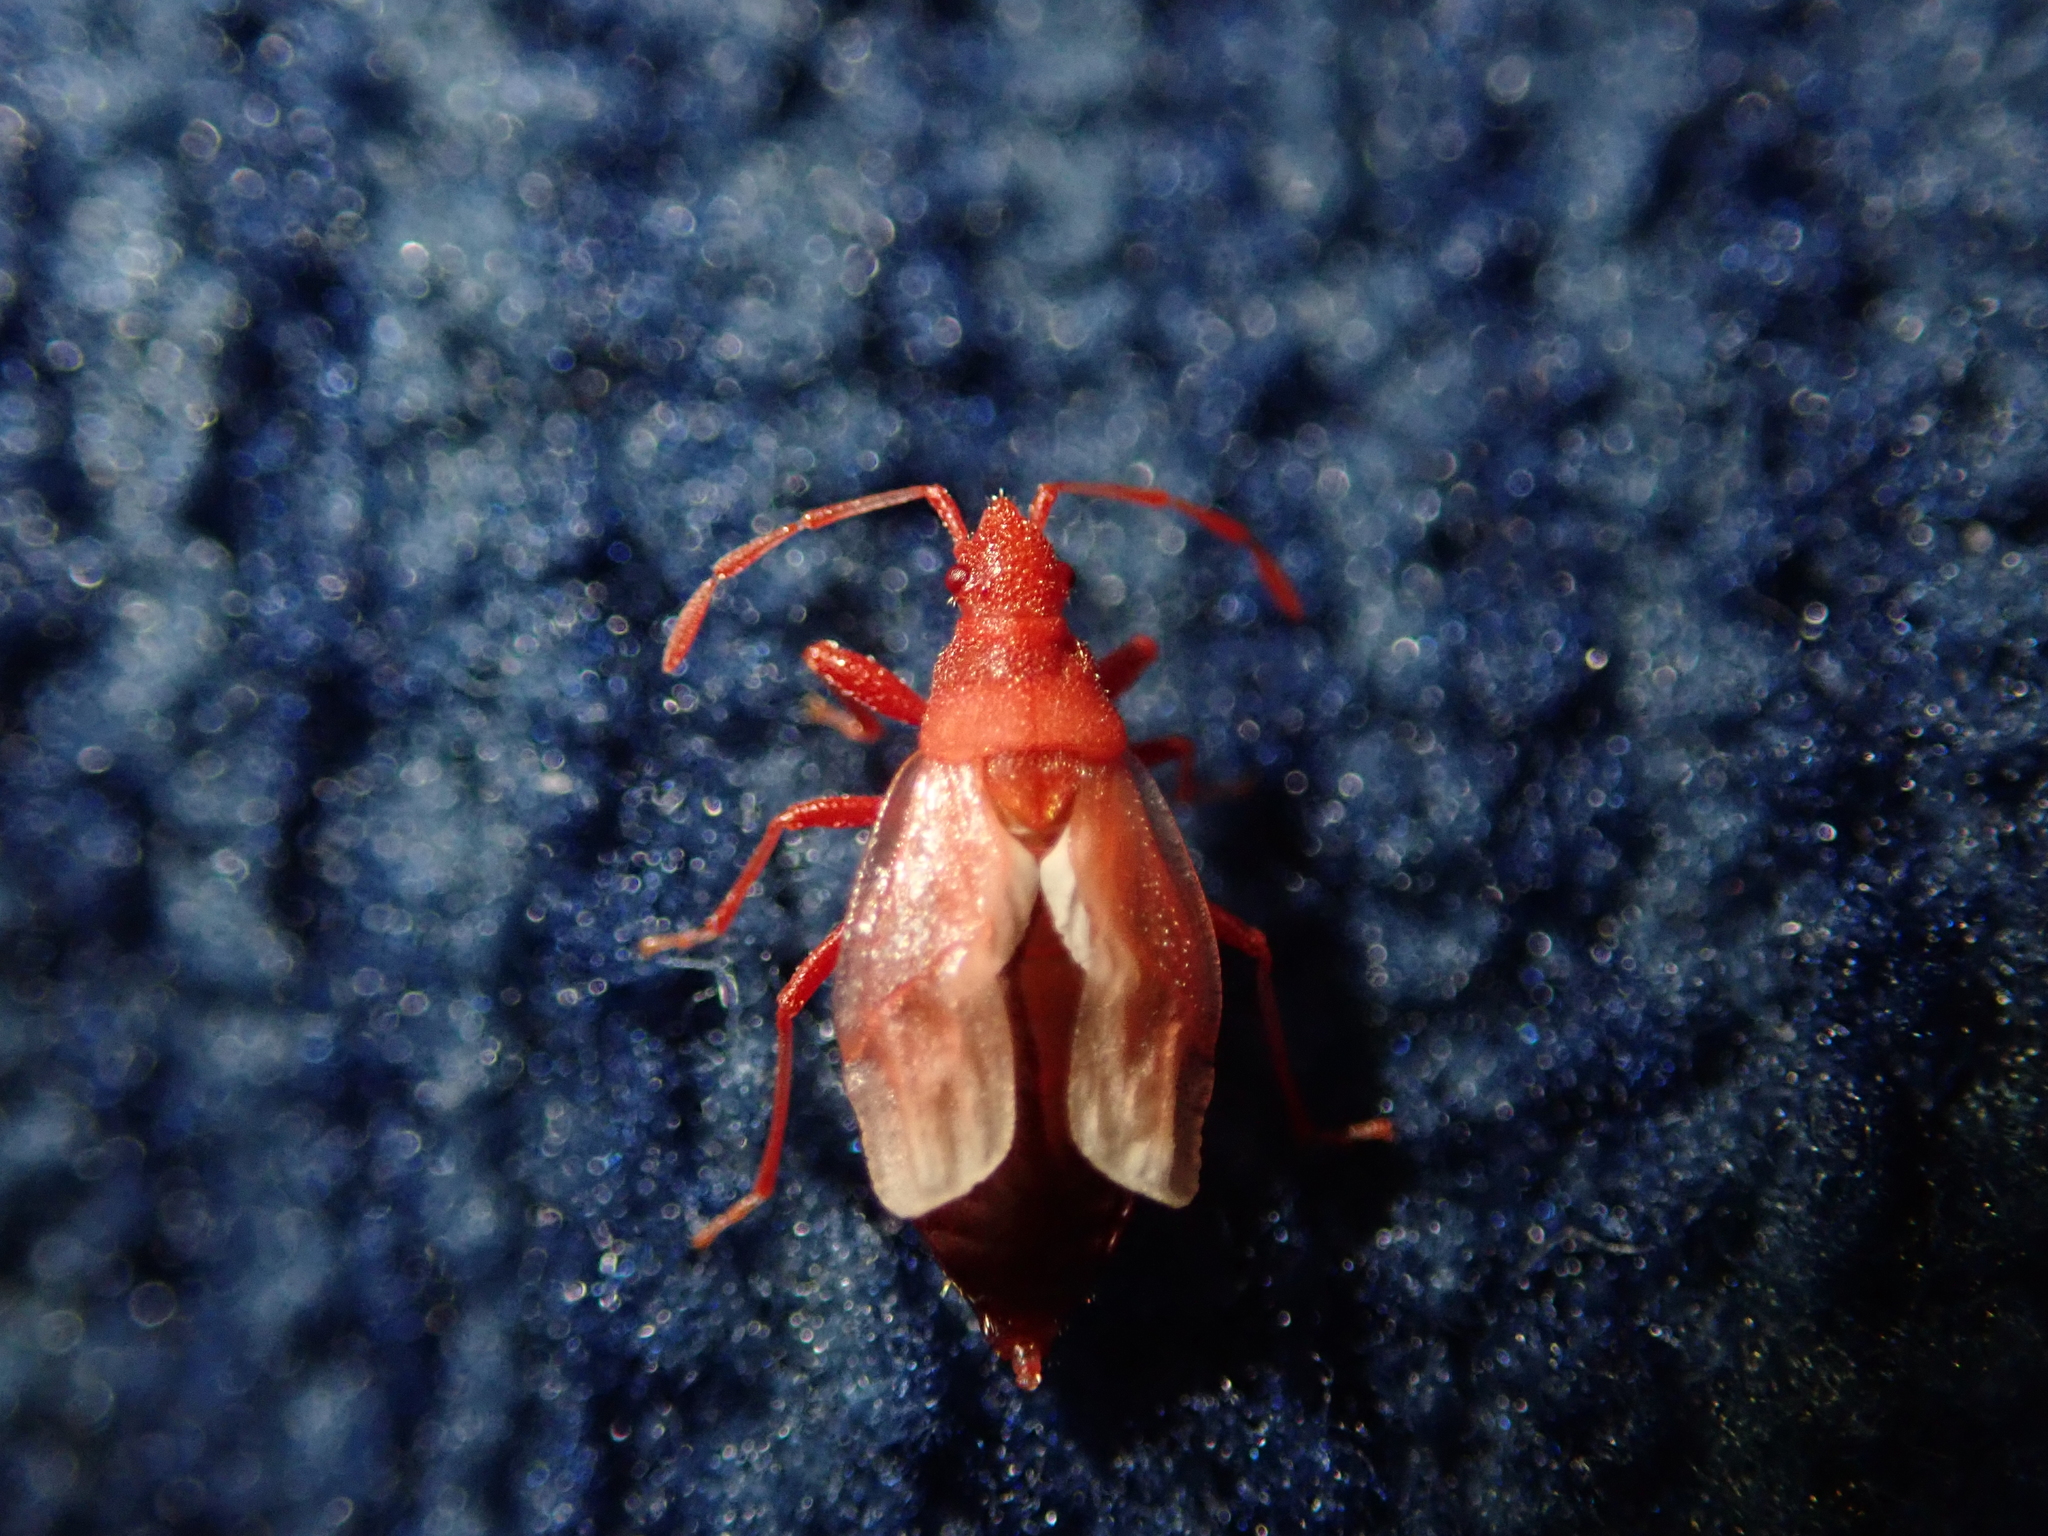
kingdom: Animalia
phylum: Arthropoda
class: Insecta
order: Hemiptera
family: Oxycarenidae
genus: Oxycarenus
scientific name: Oxycarenus lavaterae
